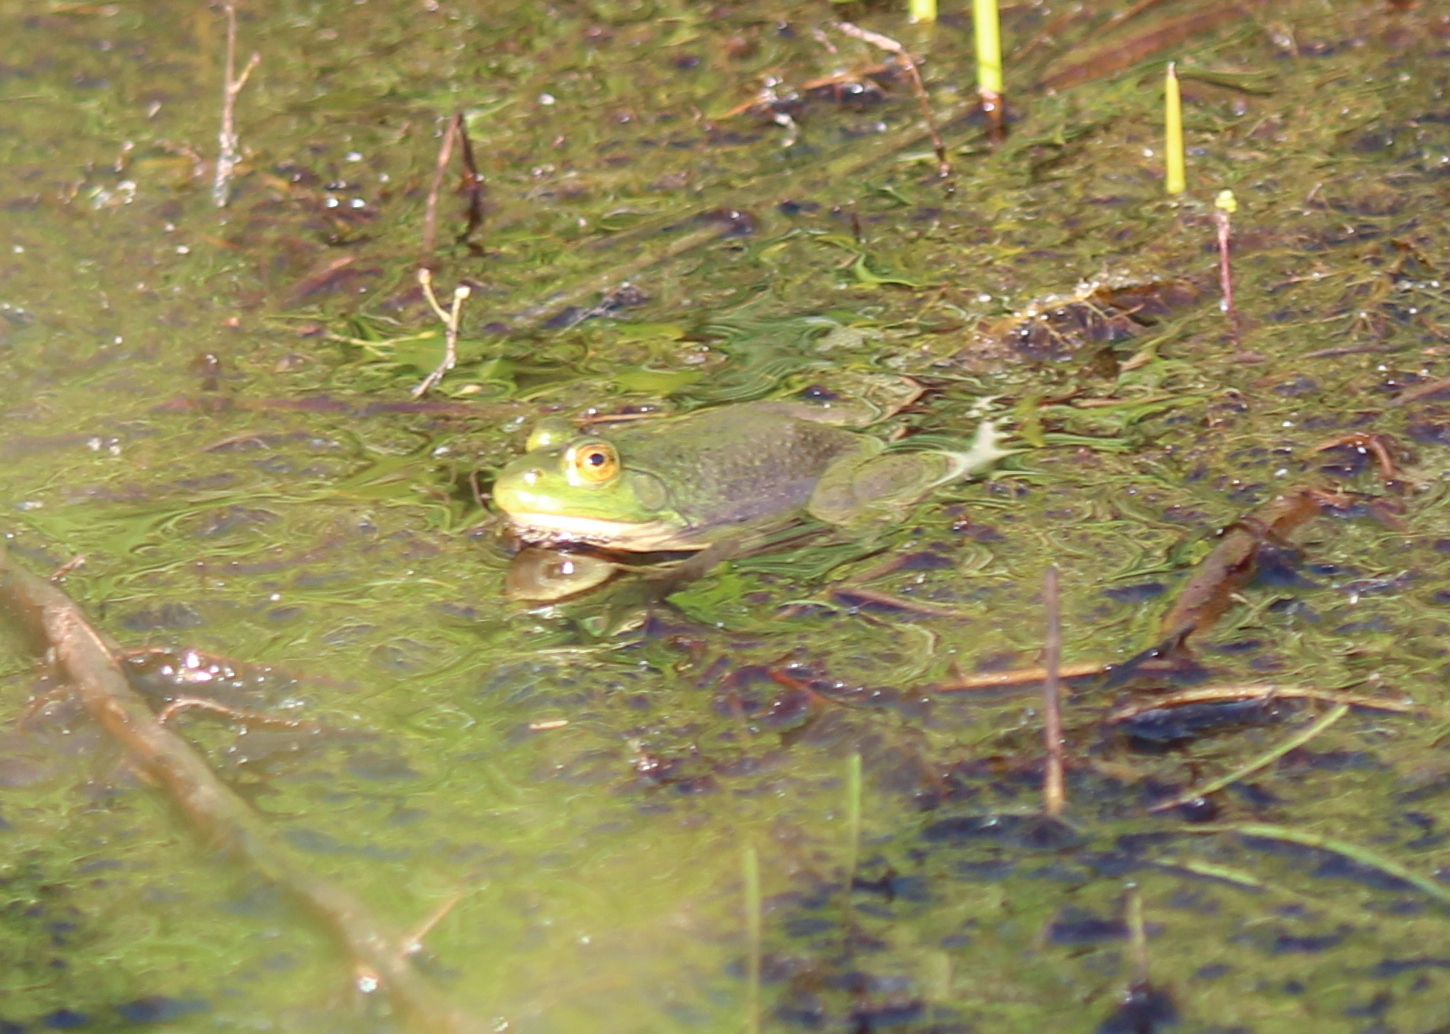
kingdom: Animalia
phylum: Chordata
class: Amphibia
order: Anura
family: Ranidae
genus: Lithobates
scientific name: Lithobates catesbeianus
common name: American bullfrog
